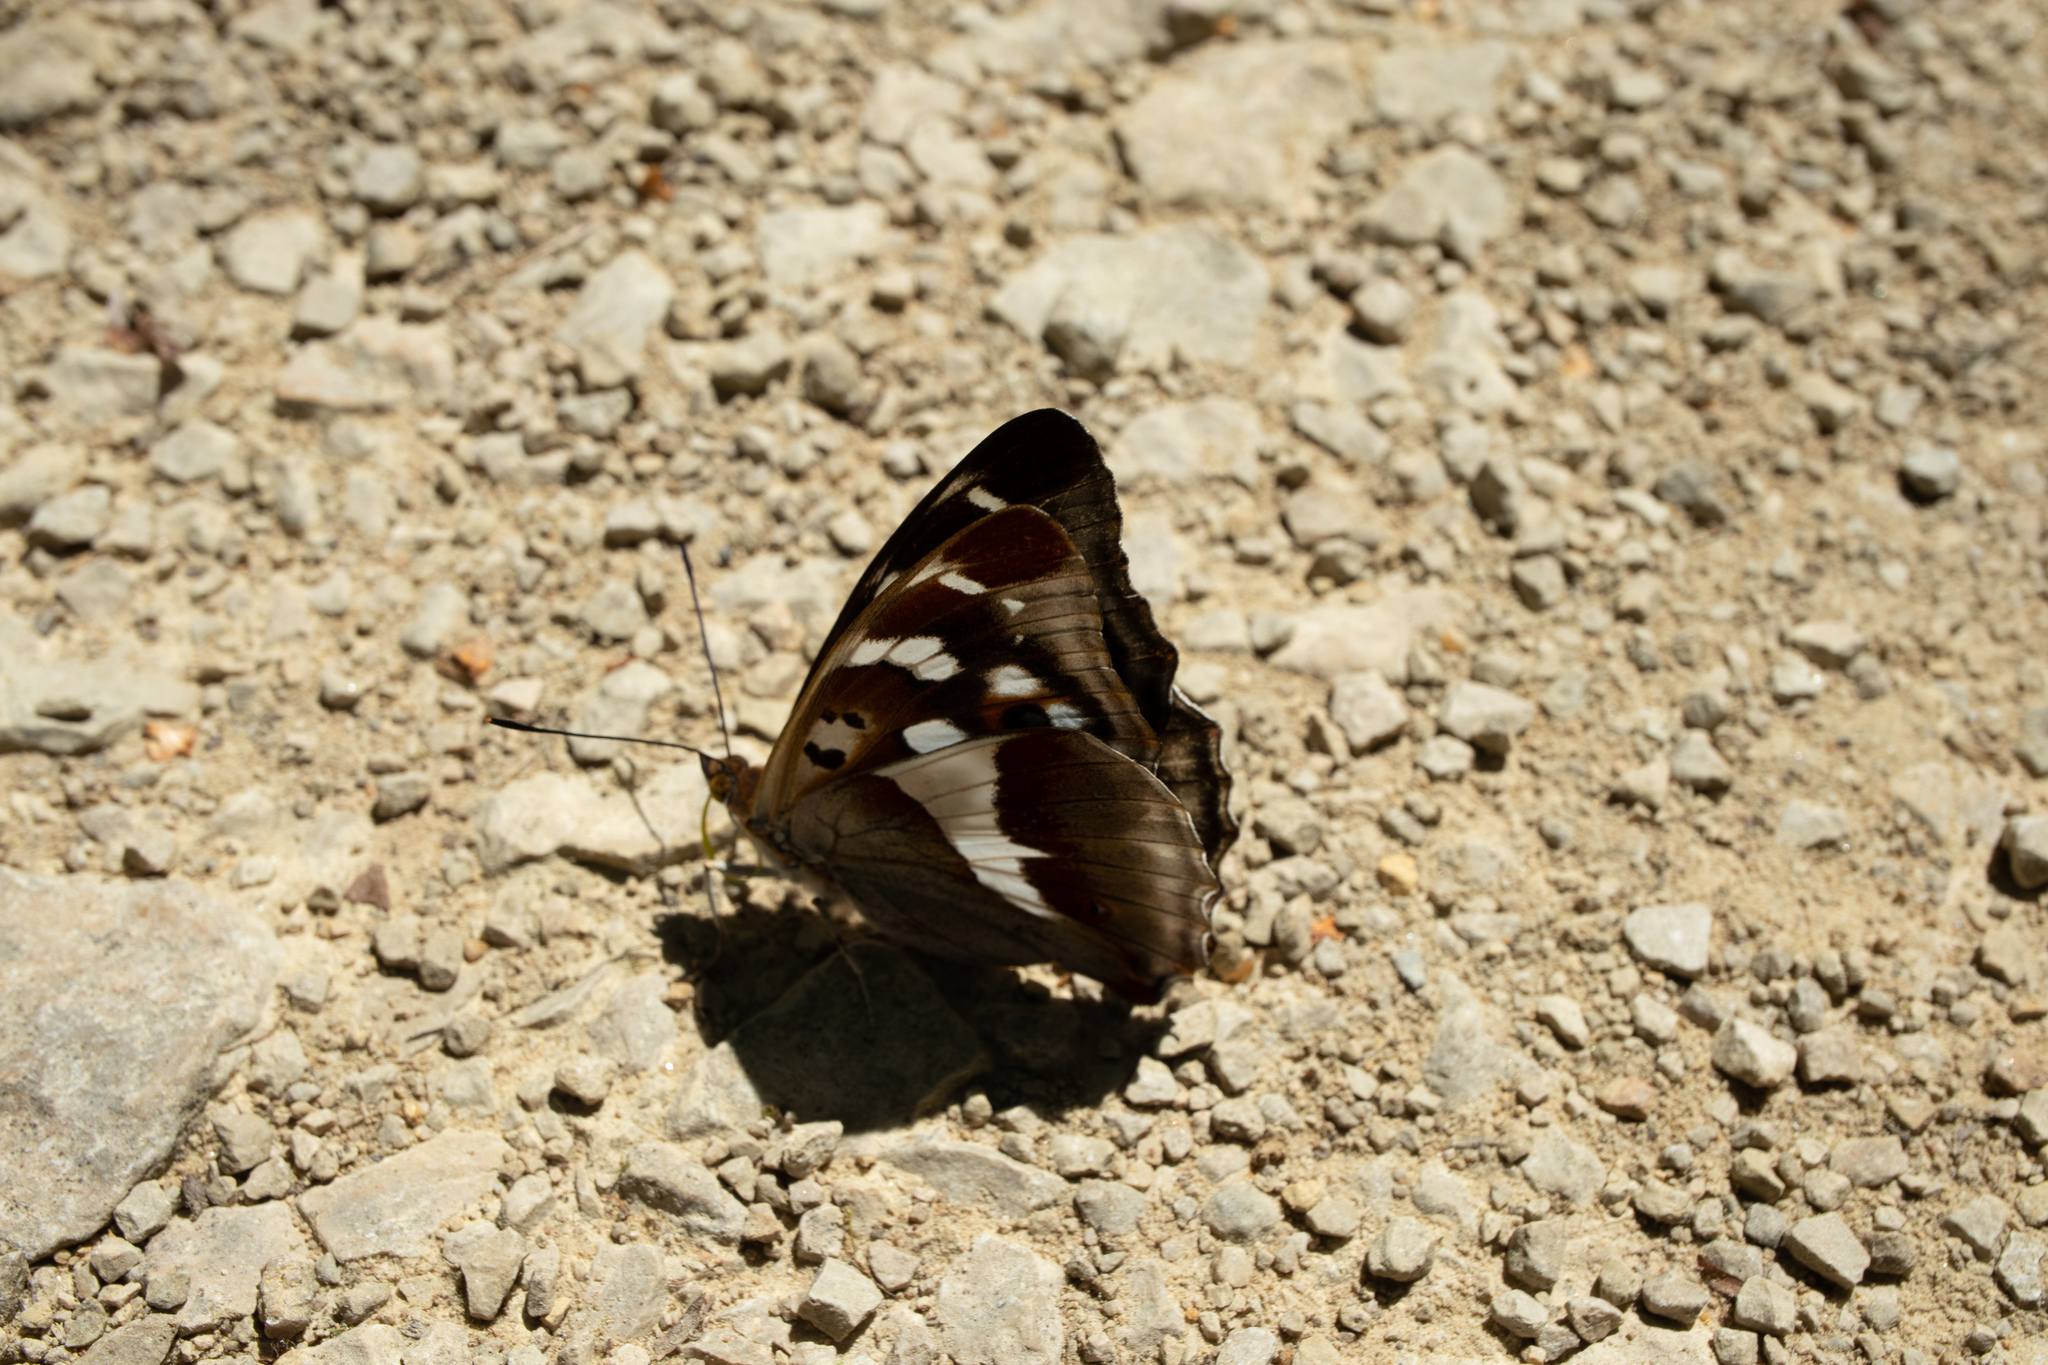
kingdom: Animalia
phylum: Arthropoda
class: Insecta
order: Lepidoptera
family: Nymphalidae
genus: Apatura
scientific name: Apatura iris
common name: Purple emperor
